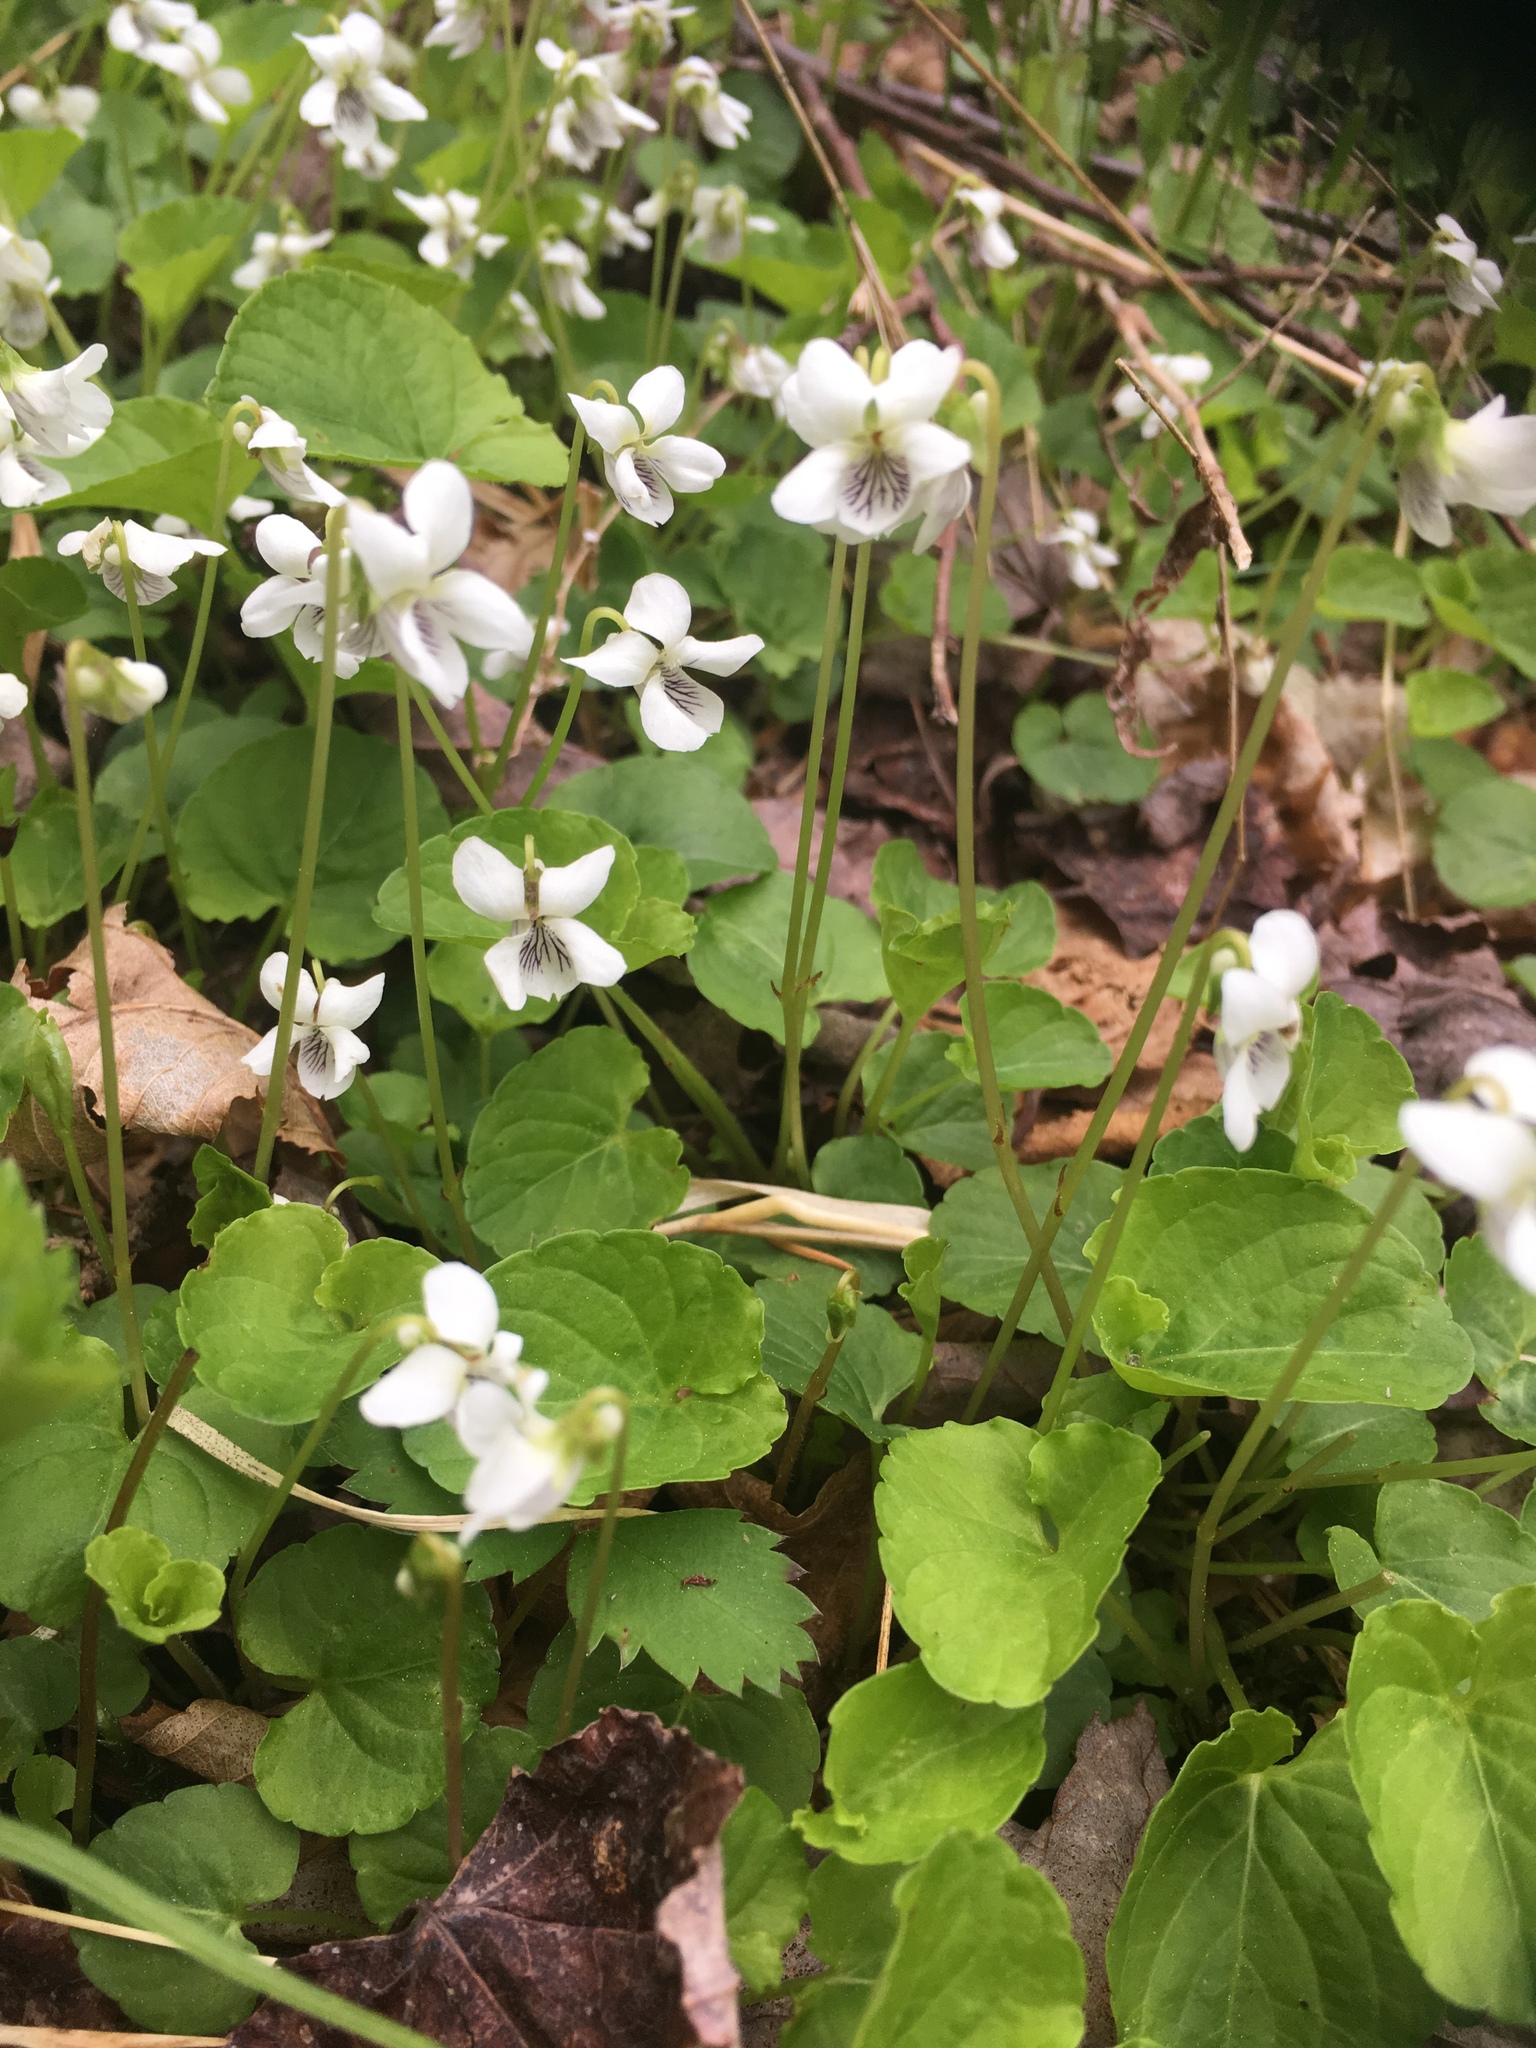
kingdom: Plantae
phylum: Tracheophyta
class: Magnoliopsida
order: Malpighiales
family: Violaceae
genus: Viola
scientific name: Viola minuscula
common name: Northern white violet
